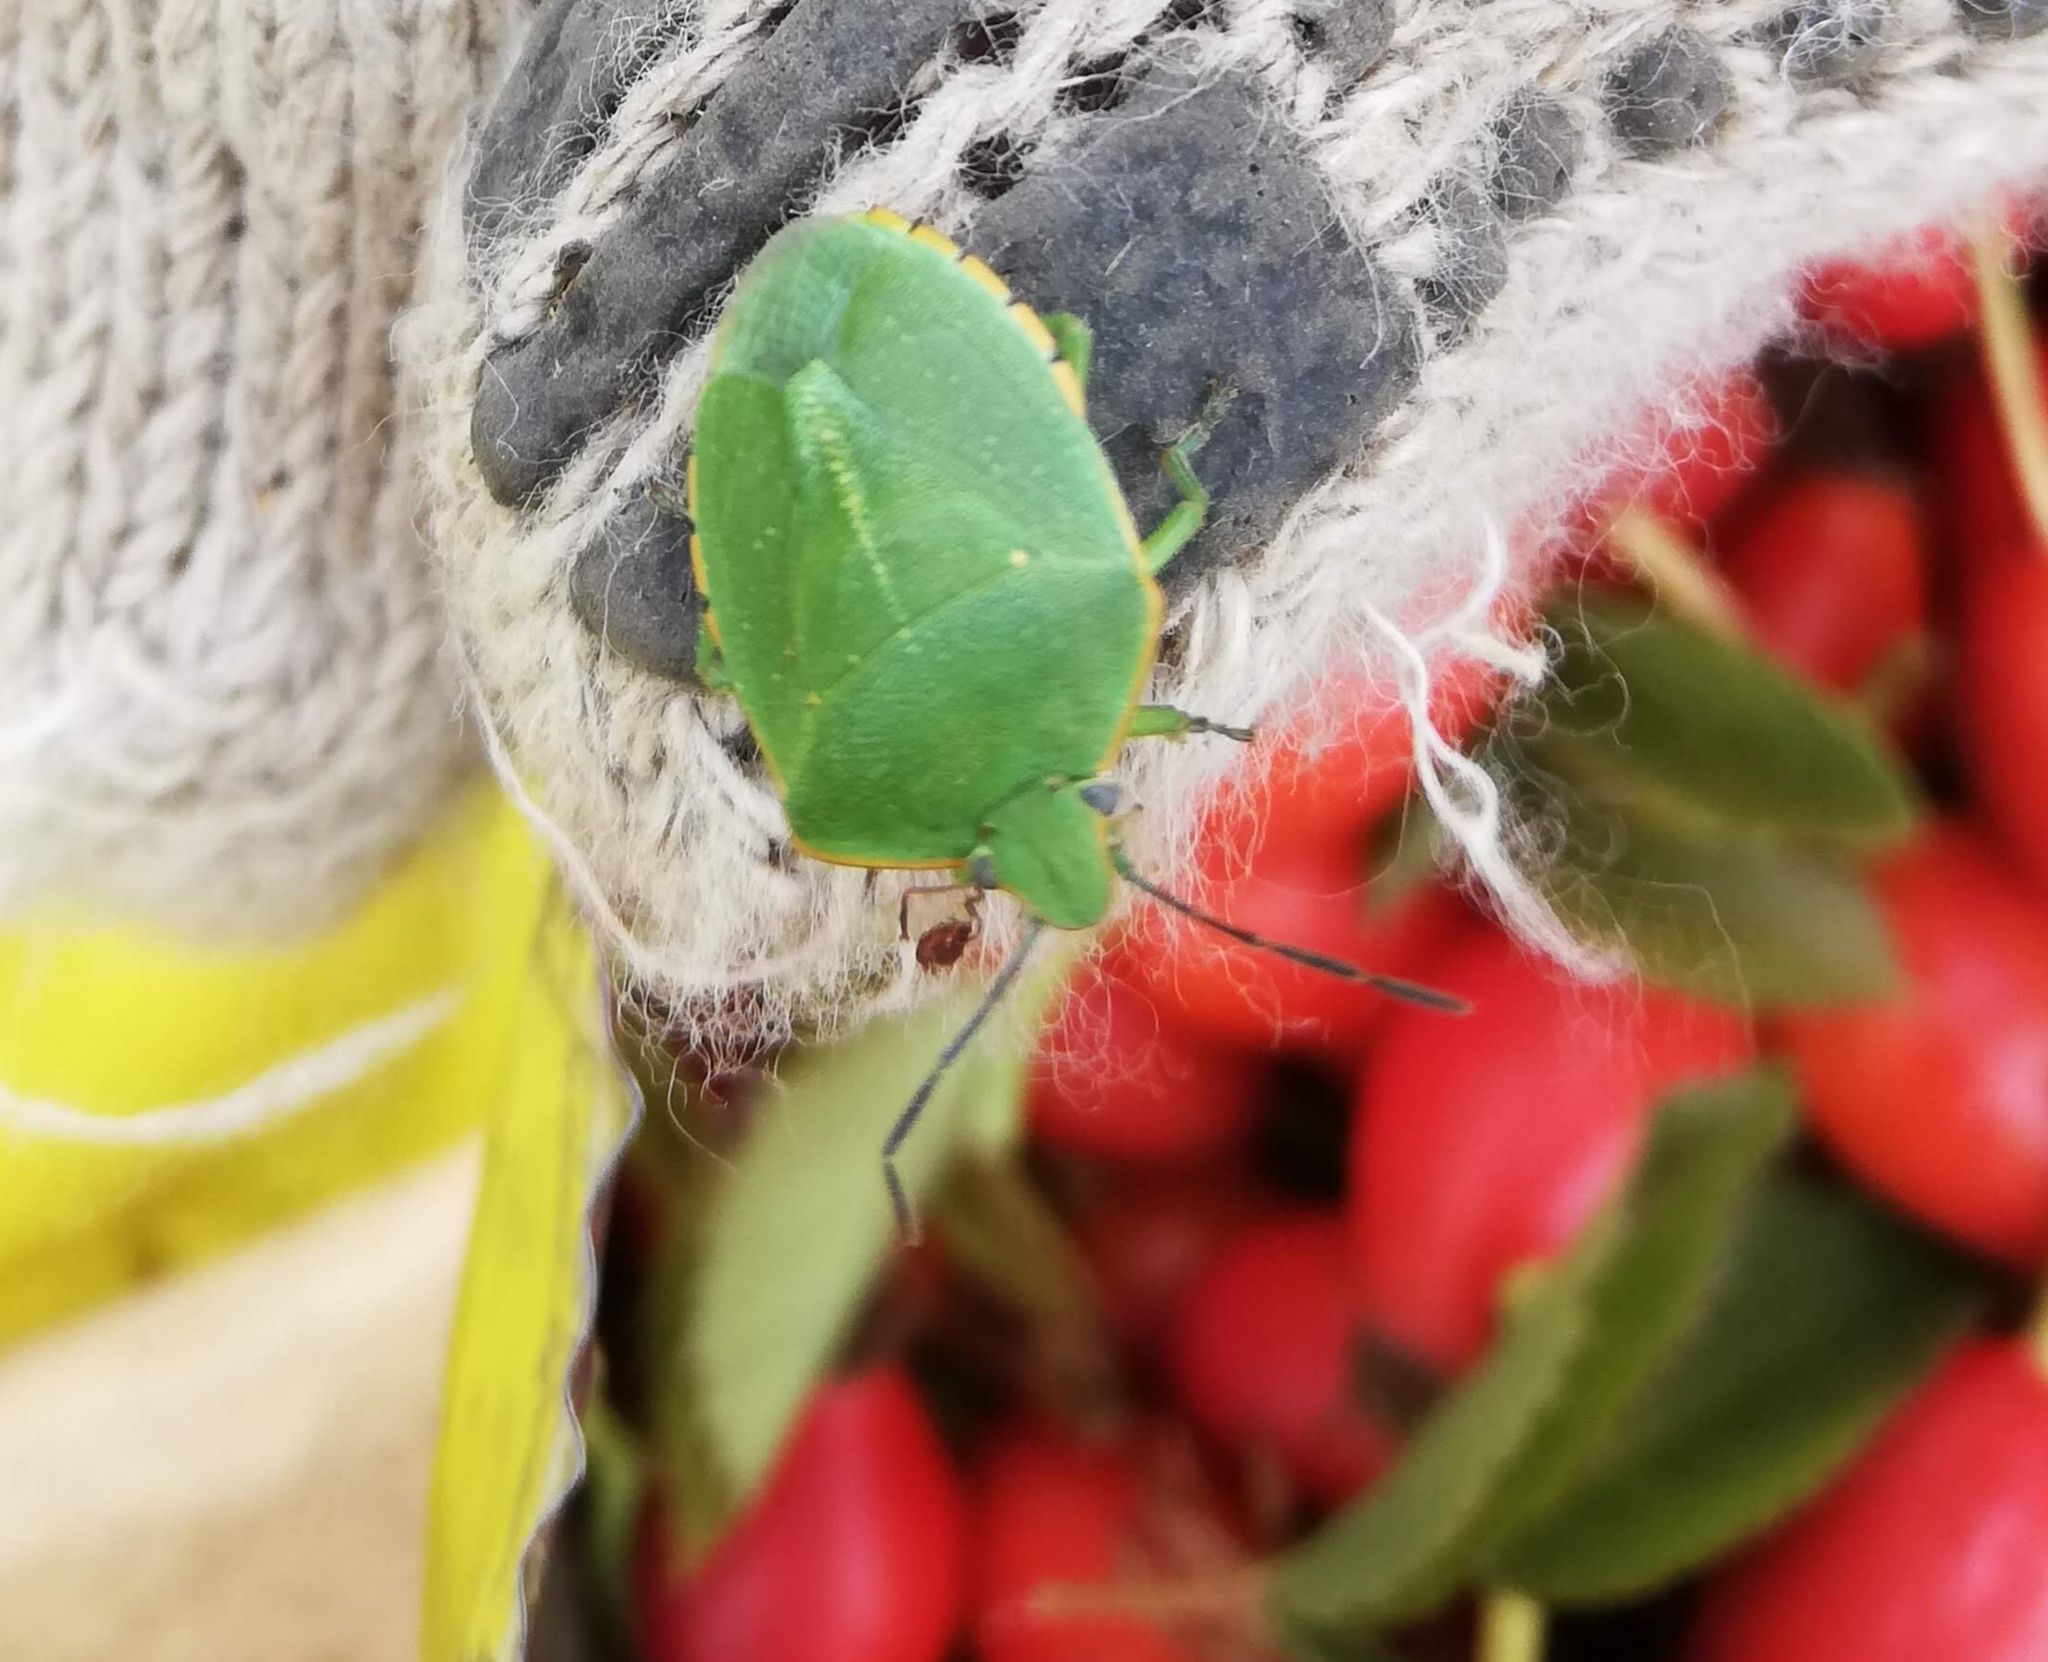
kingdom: Animalia
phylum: Arthropoda
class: Insecta
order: Hemiptera
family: Pentatomidae
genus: Chinavia
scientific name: Chinavia perezi
